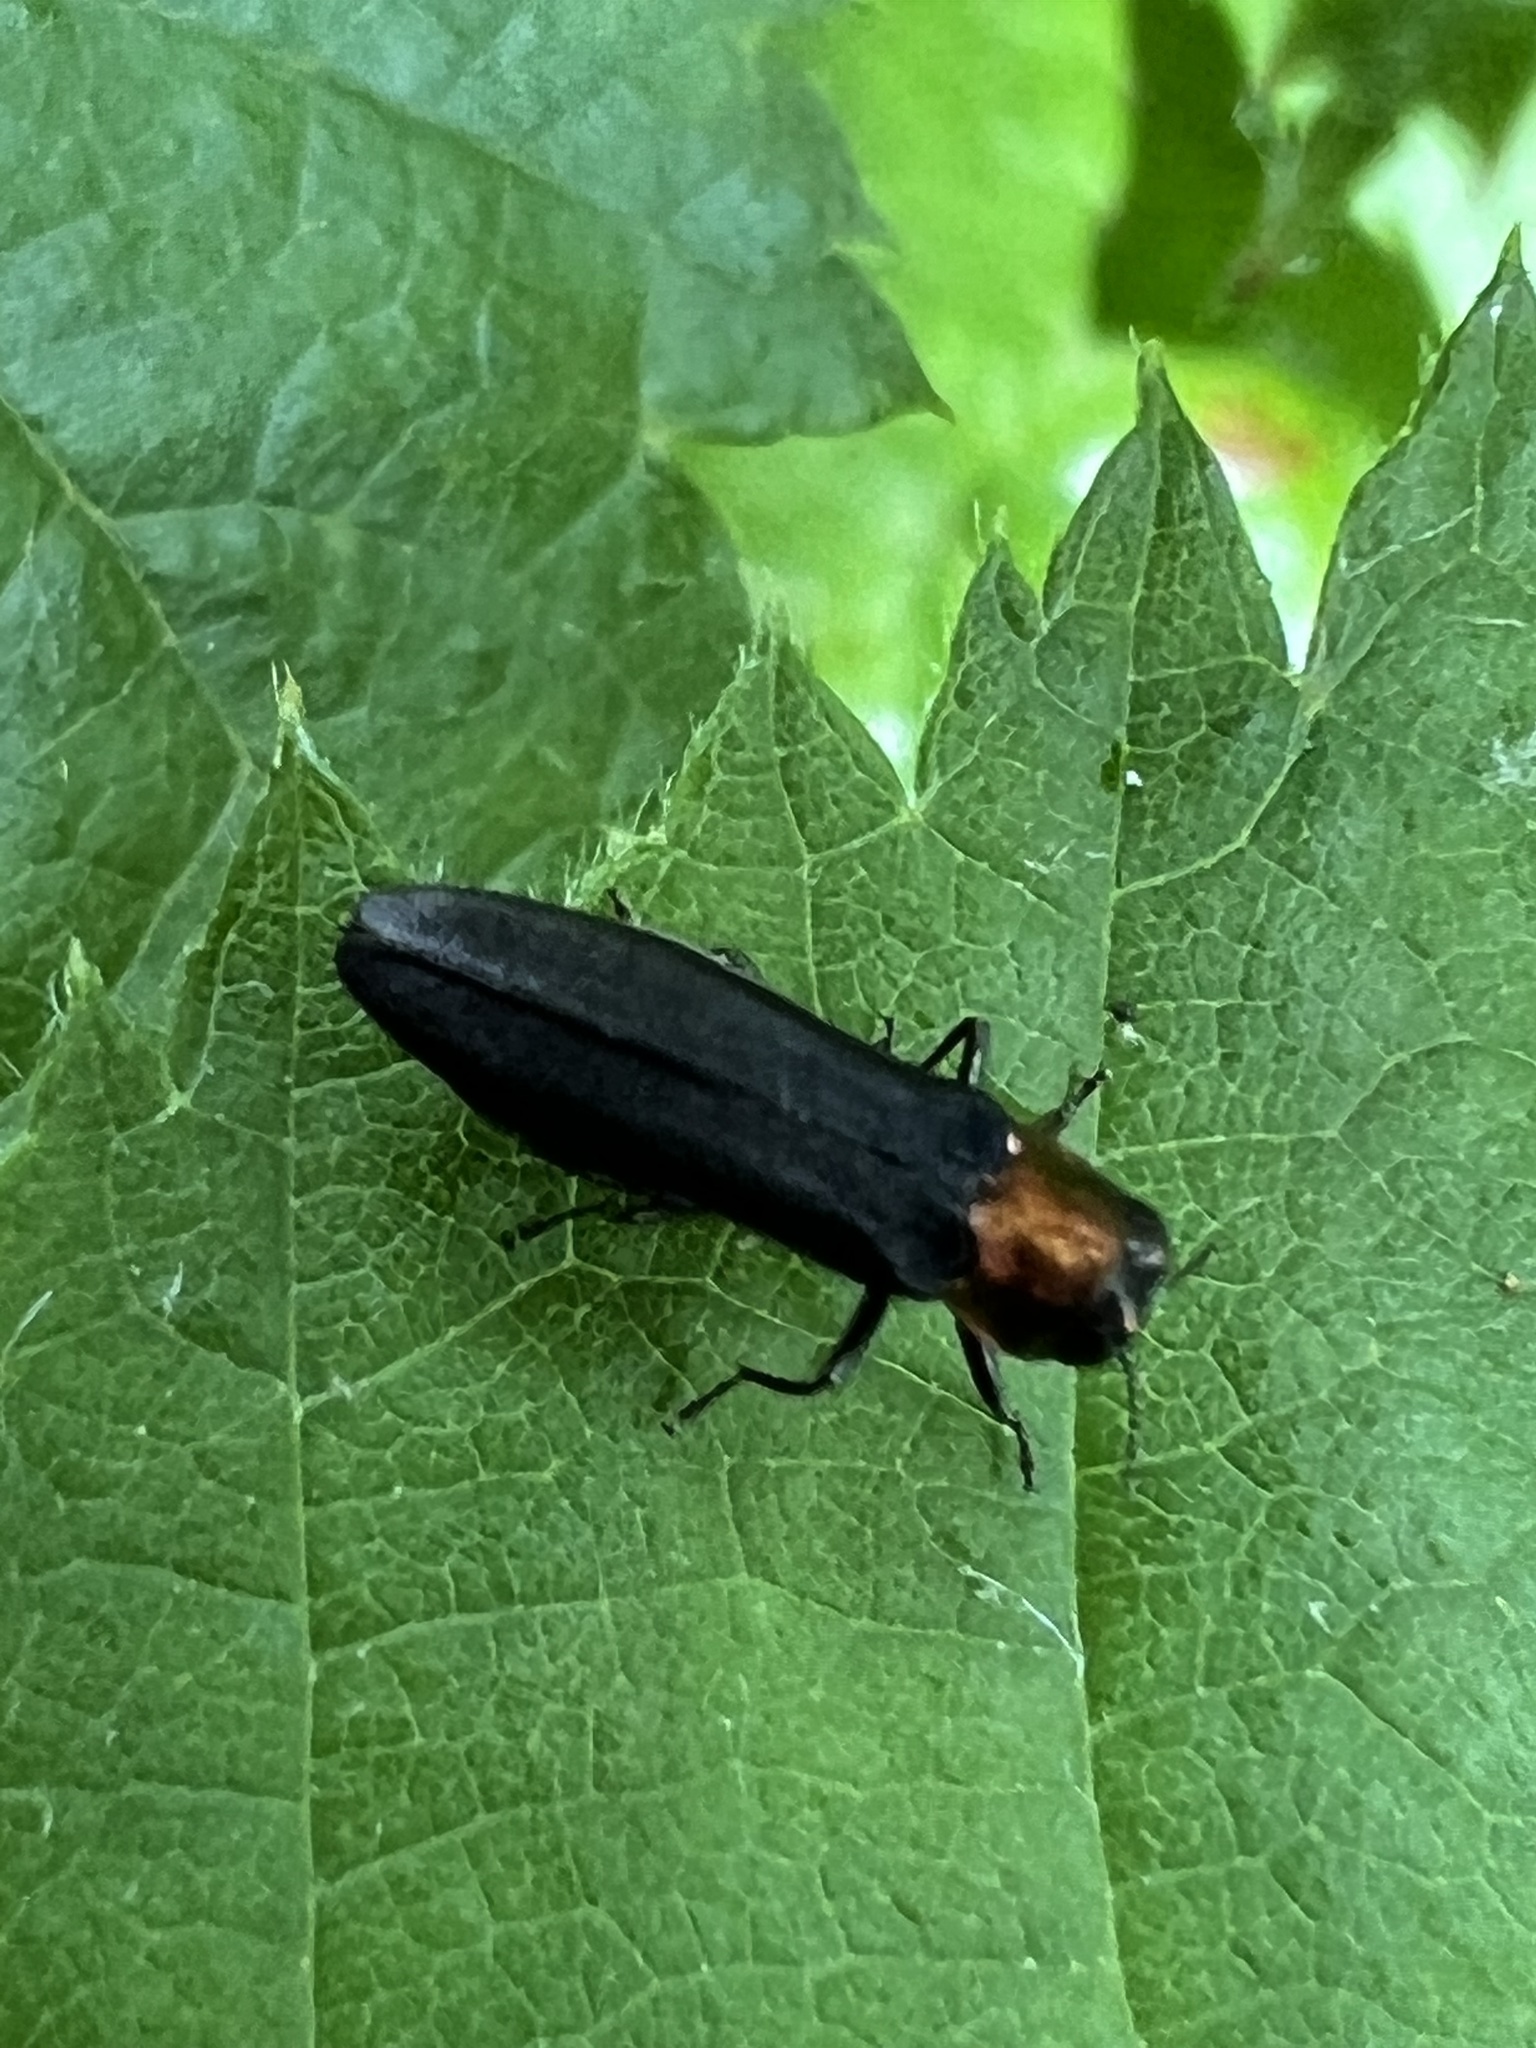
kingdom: Animalia
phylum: Arthropoda
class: Insecta
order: Coleoptera
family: Buprestidae
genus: Agrilus
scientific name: Agrilus ruficollis
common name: Red-necked cane borer beetle
